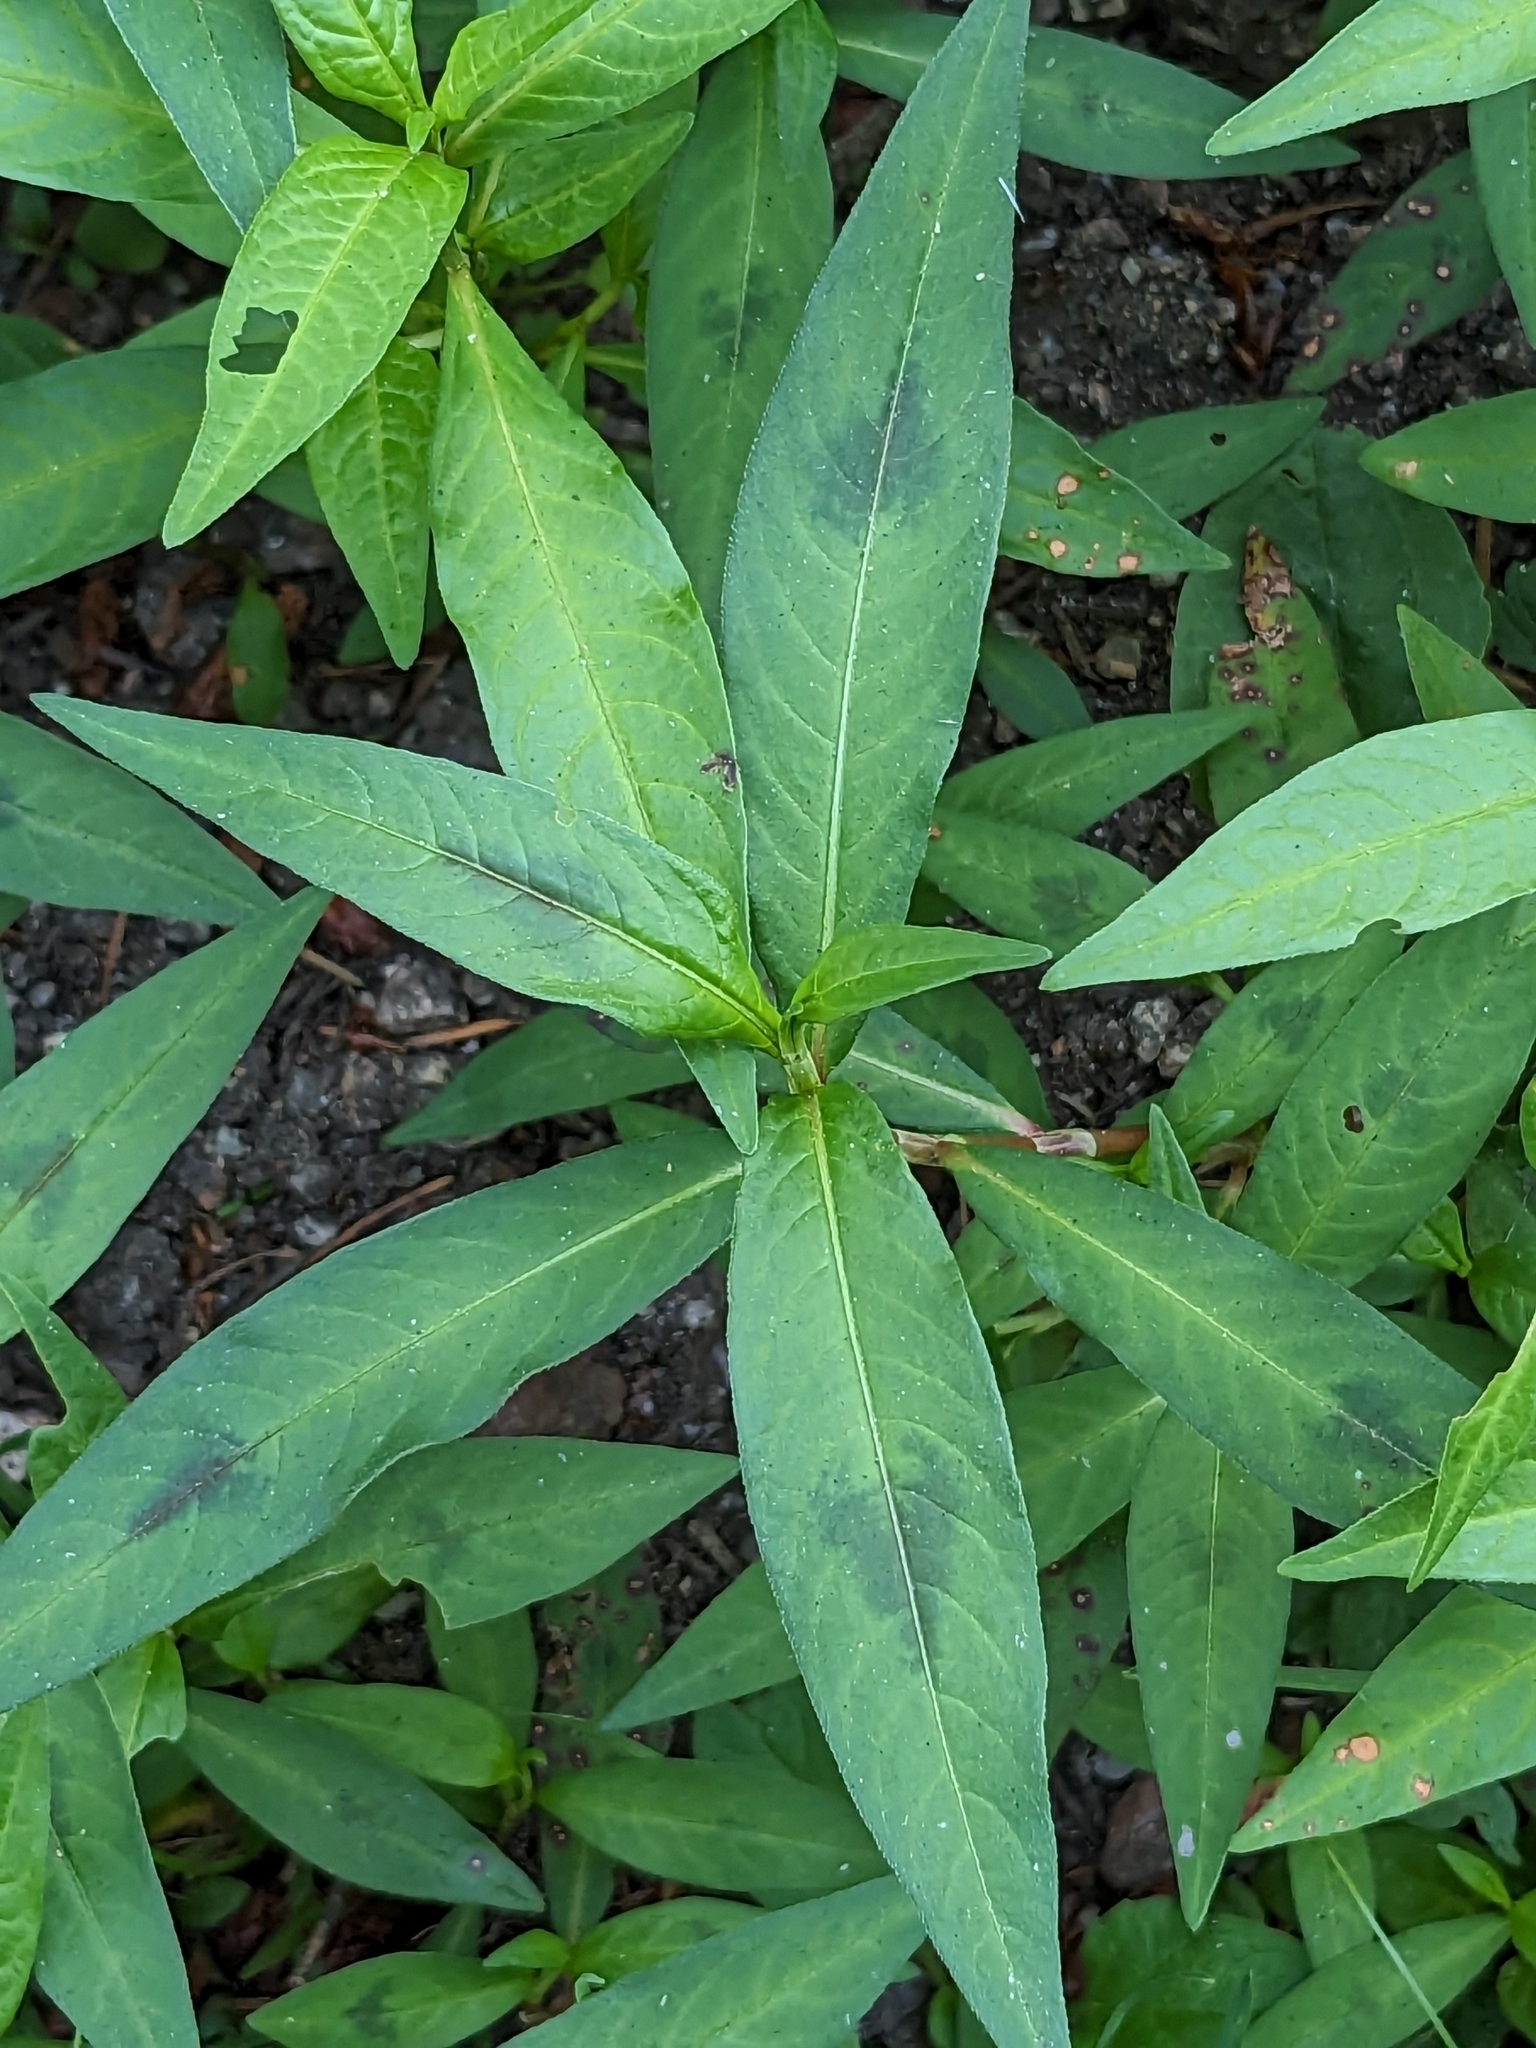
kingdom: Plantae
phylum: Tracheophyta
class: Magnoliopsida
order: Caryophyllales
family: Polygonaceae
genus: Persicaria
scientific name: Persicaria maculosa
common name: Redshank
